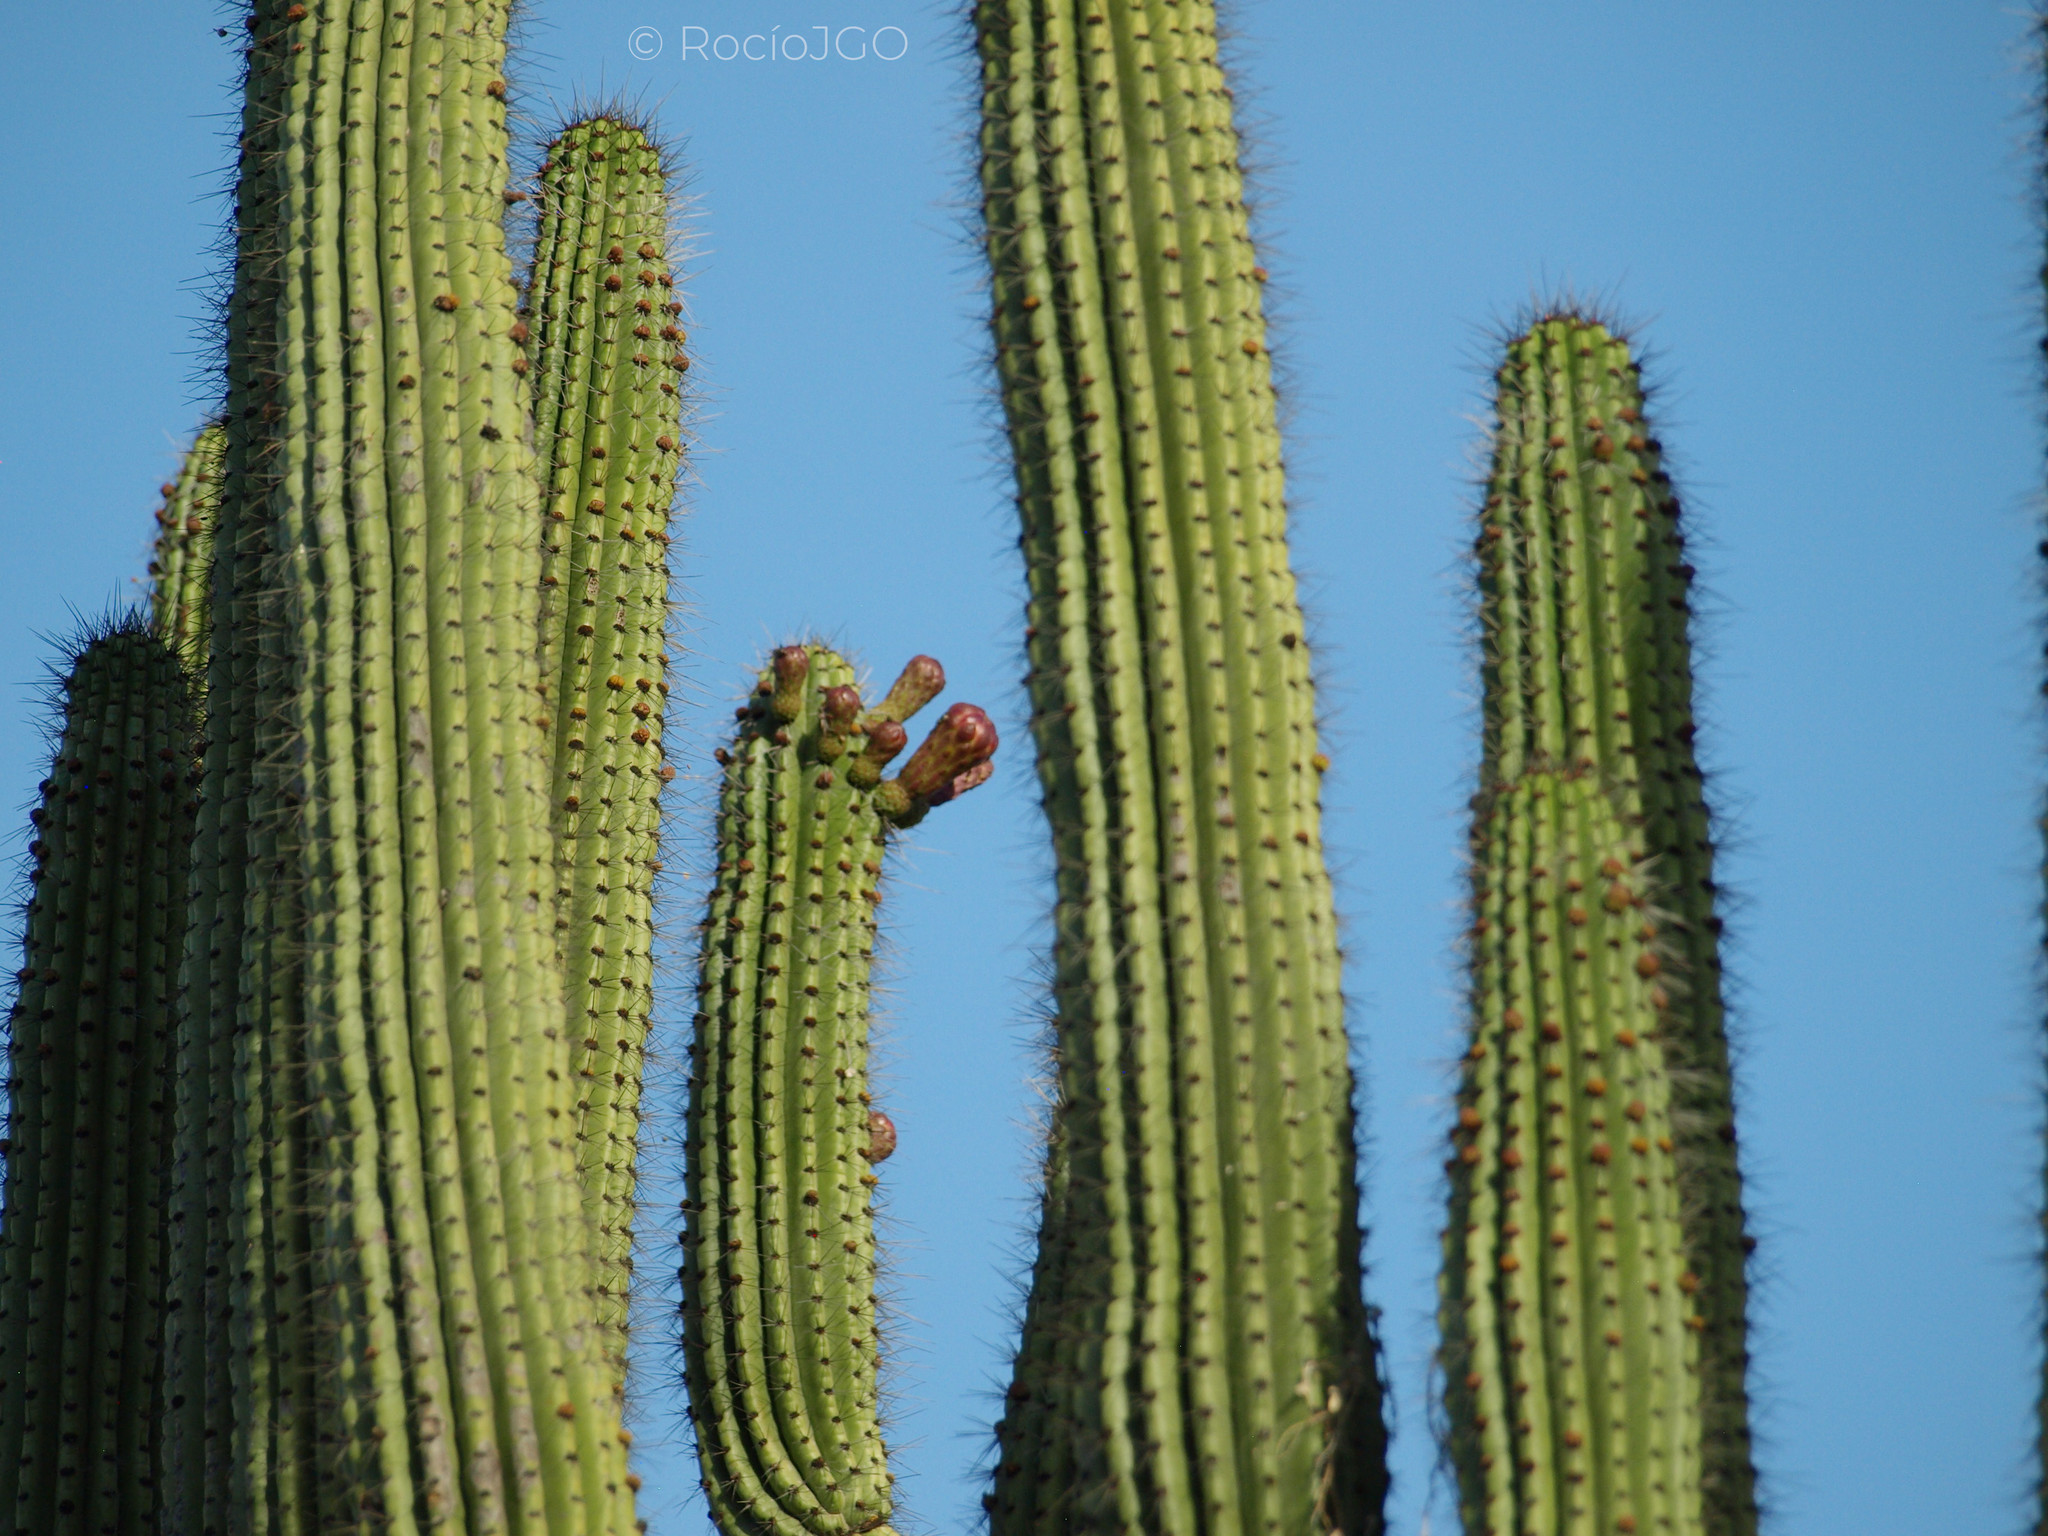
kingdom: Plantae
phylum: Tracheophyta
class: Magnoliopsida
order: Caryophyllales
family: Cactaceae
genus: Stenocereus
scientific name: Stenocereus thurberi
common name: Organ pipe cactus
